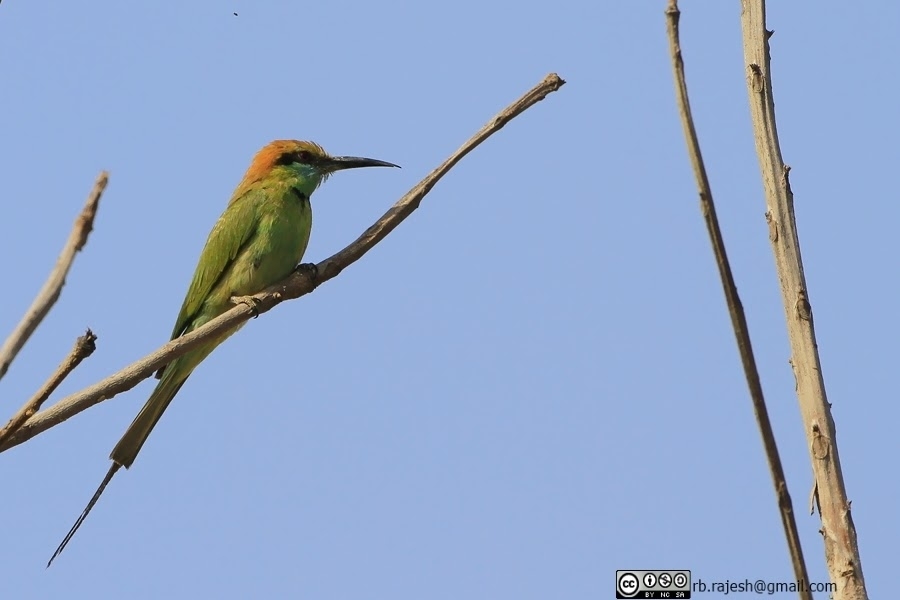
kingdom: Animalia
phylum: Chordata
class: Aves
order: Coraciiformes
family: Meropidae
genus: Merops
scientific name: Merops orientalis
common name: Green bee-eater
